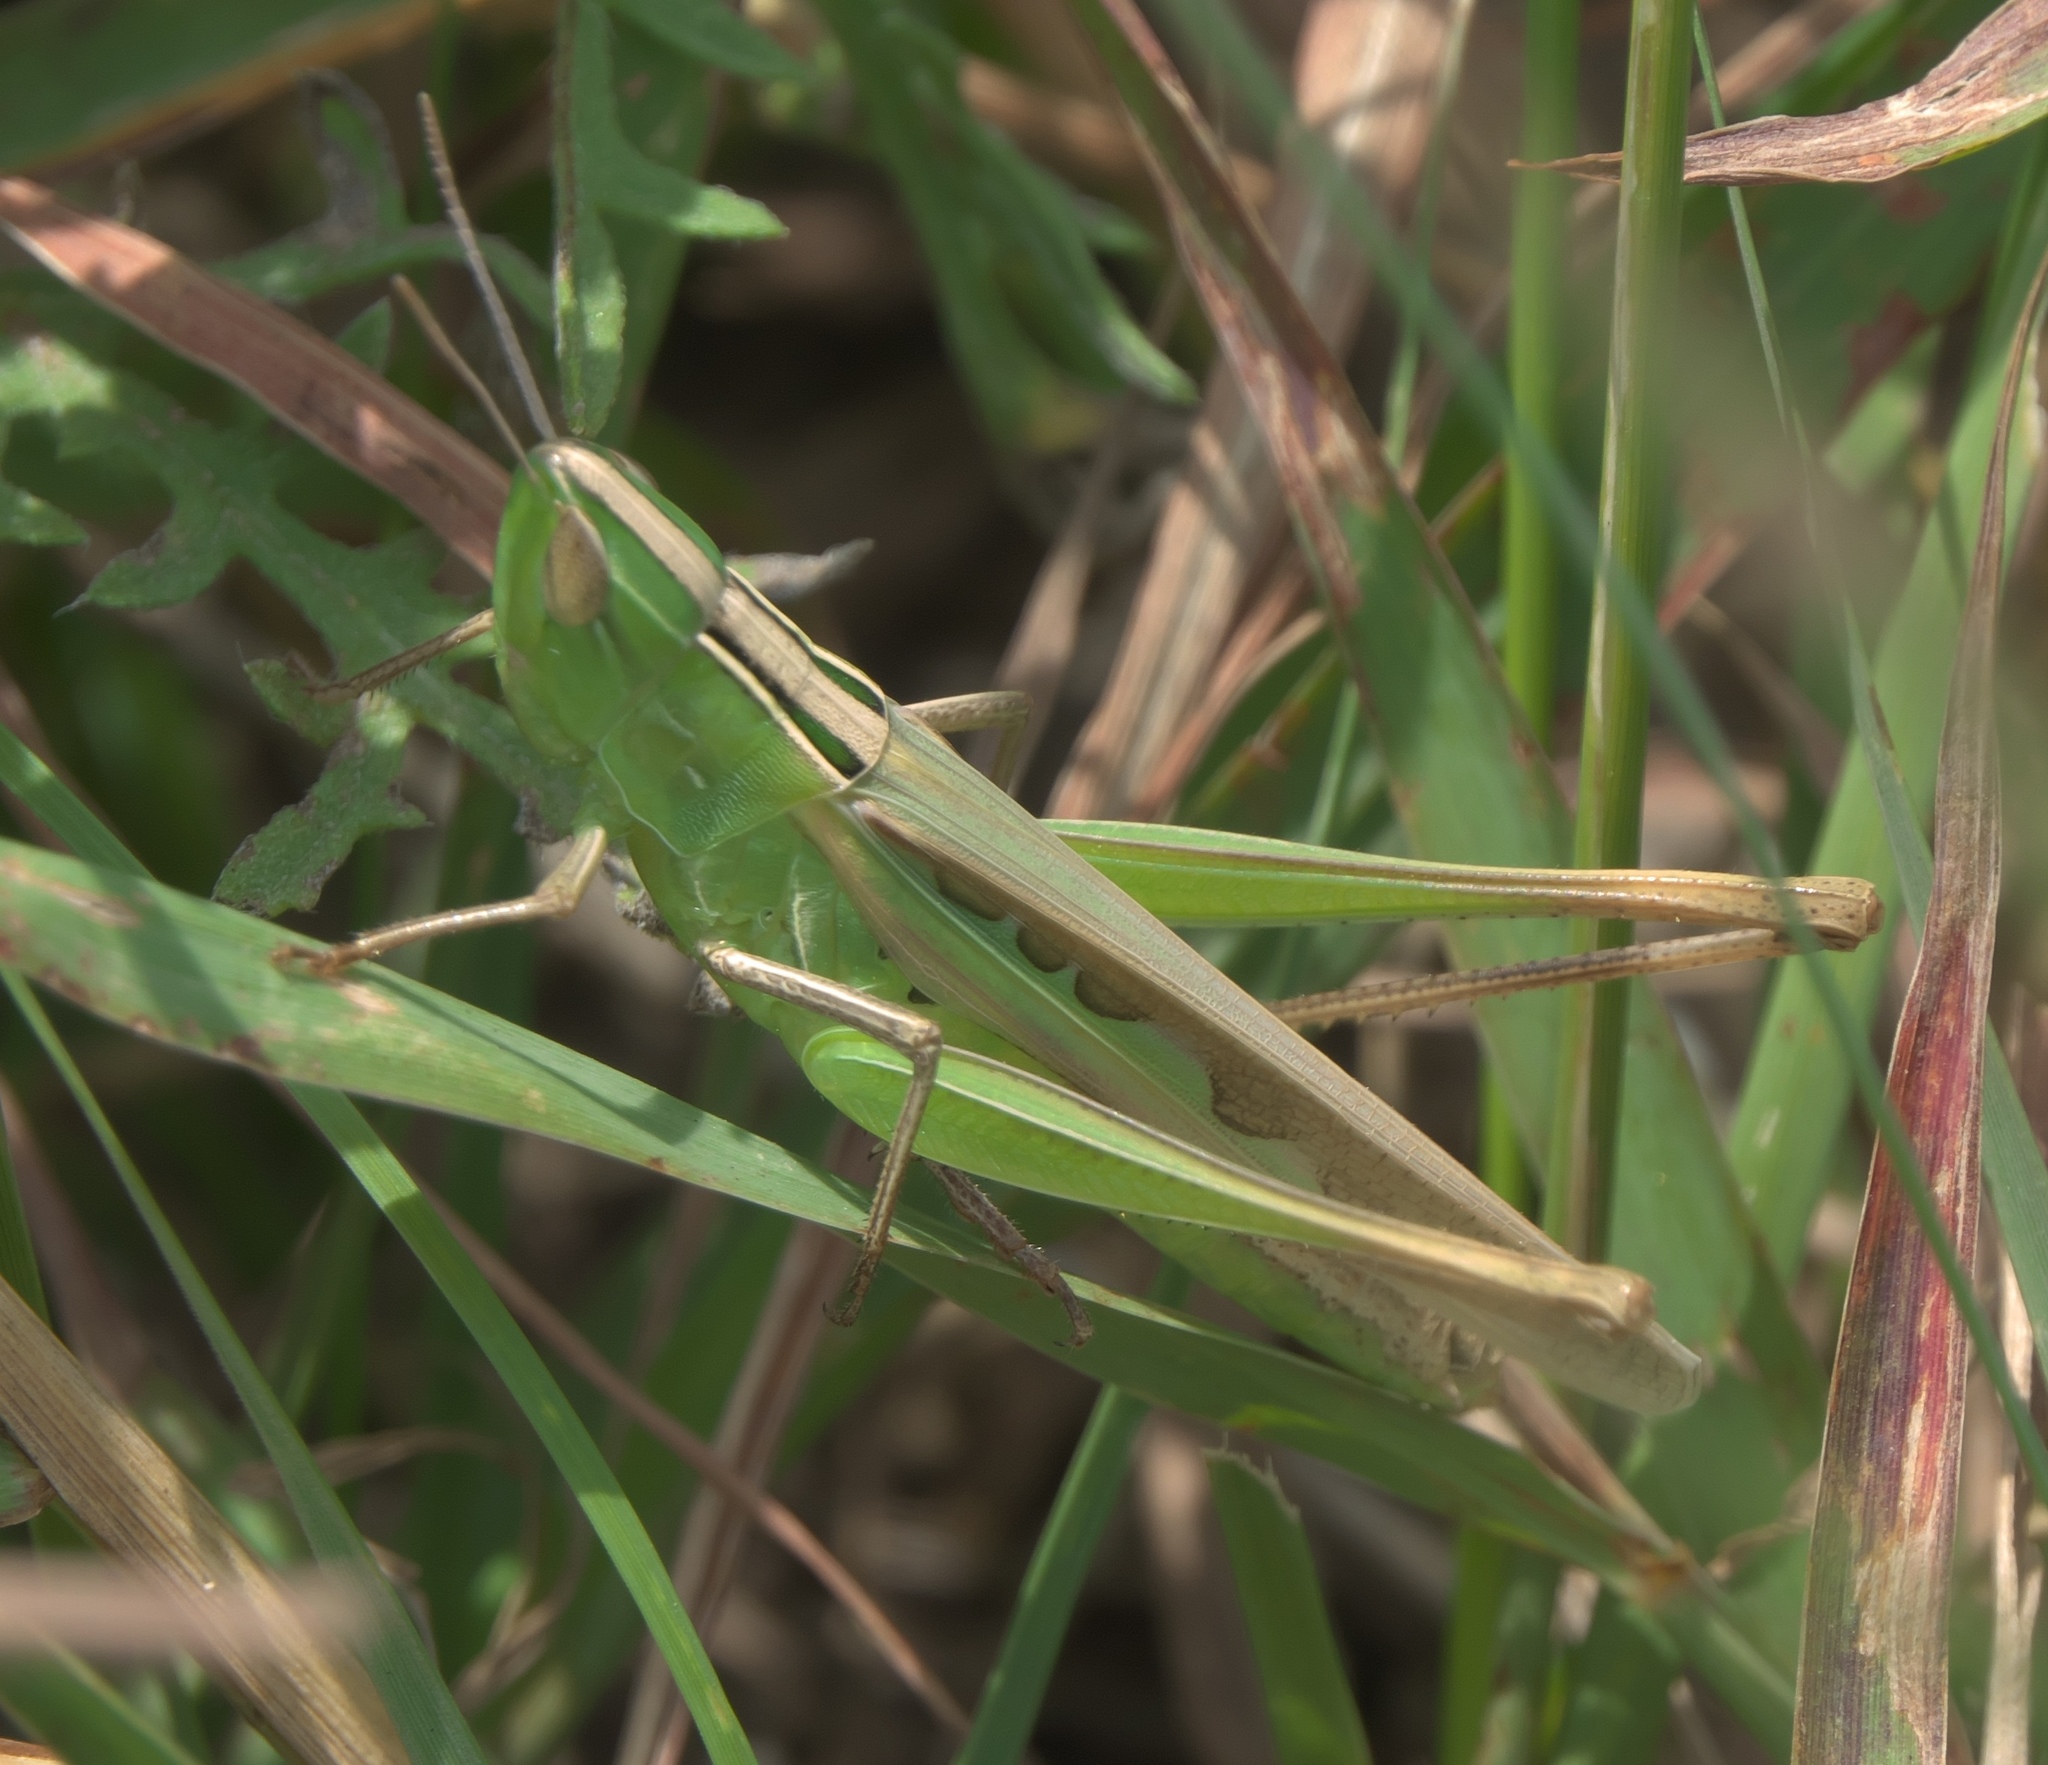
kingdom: Animalia
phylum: Arthropoda
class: Insecta
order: Orthoptera
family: Acrididae
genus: Syrbula
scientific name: Syrbula admirabilis
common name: Handsome grasshopper
